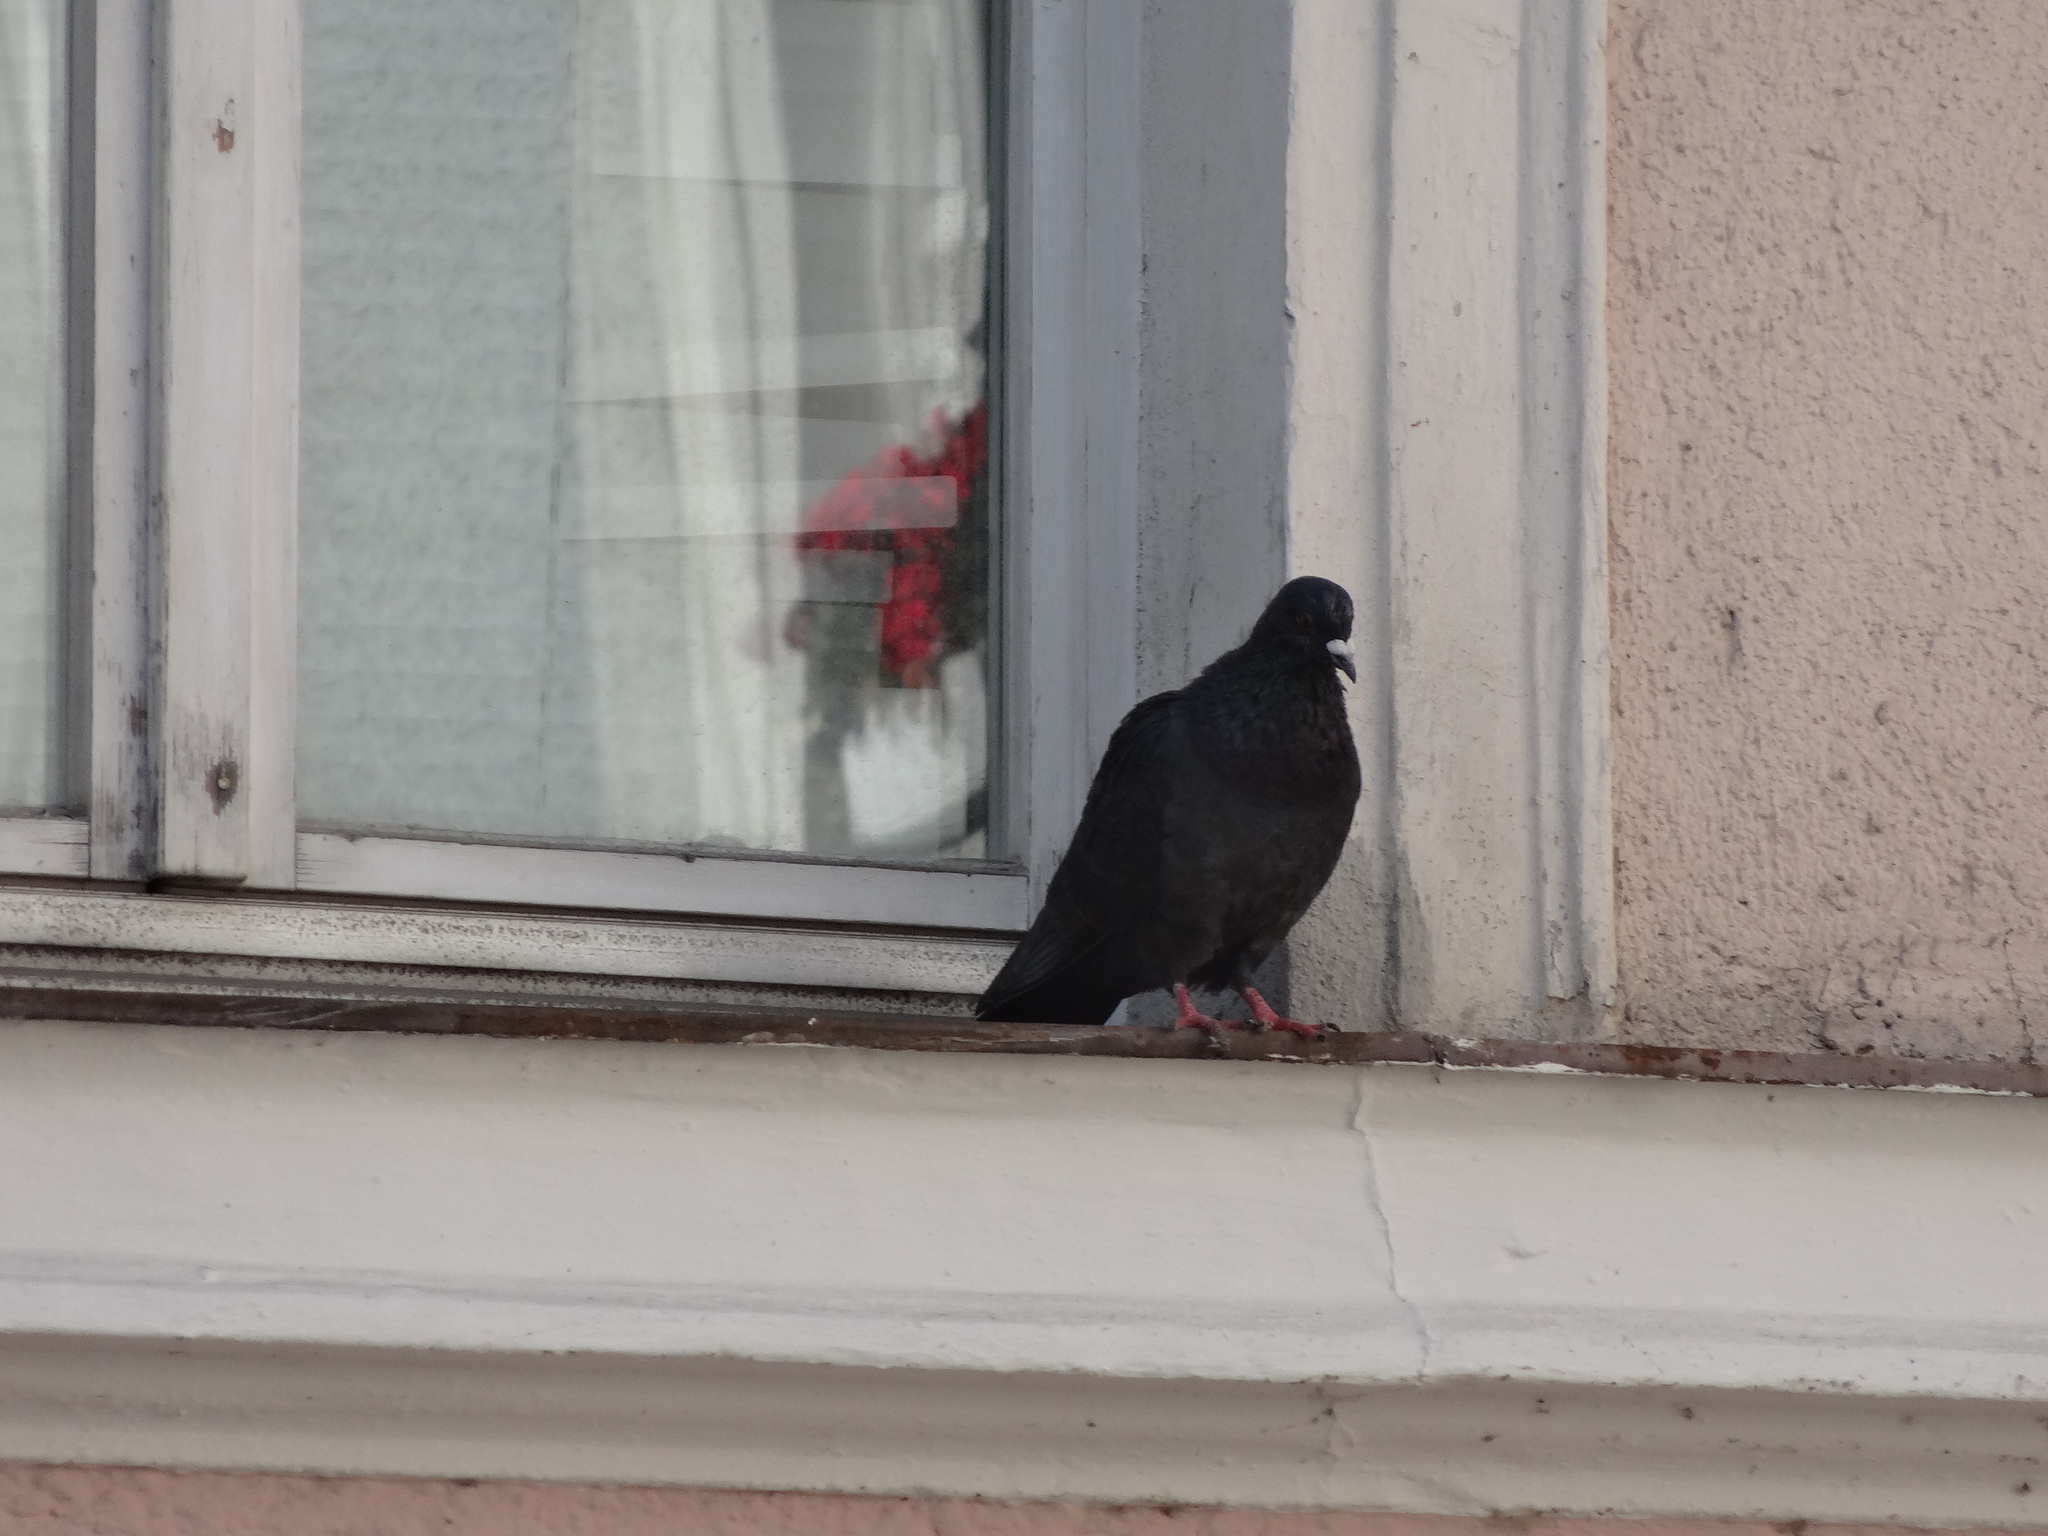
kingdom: Animalia
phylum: Chordata
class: Aves
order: Columbiformes
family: Columbidae
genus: Columba
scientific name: Columba livia
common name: Rock pigeon
